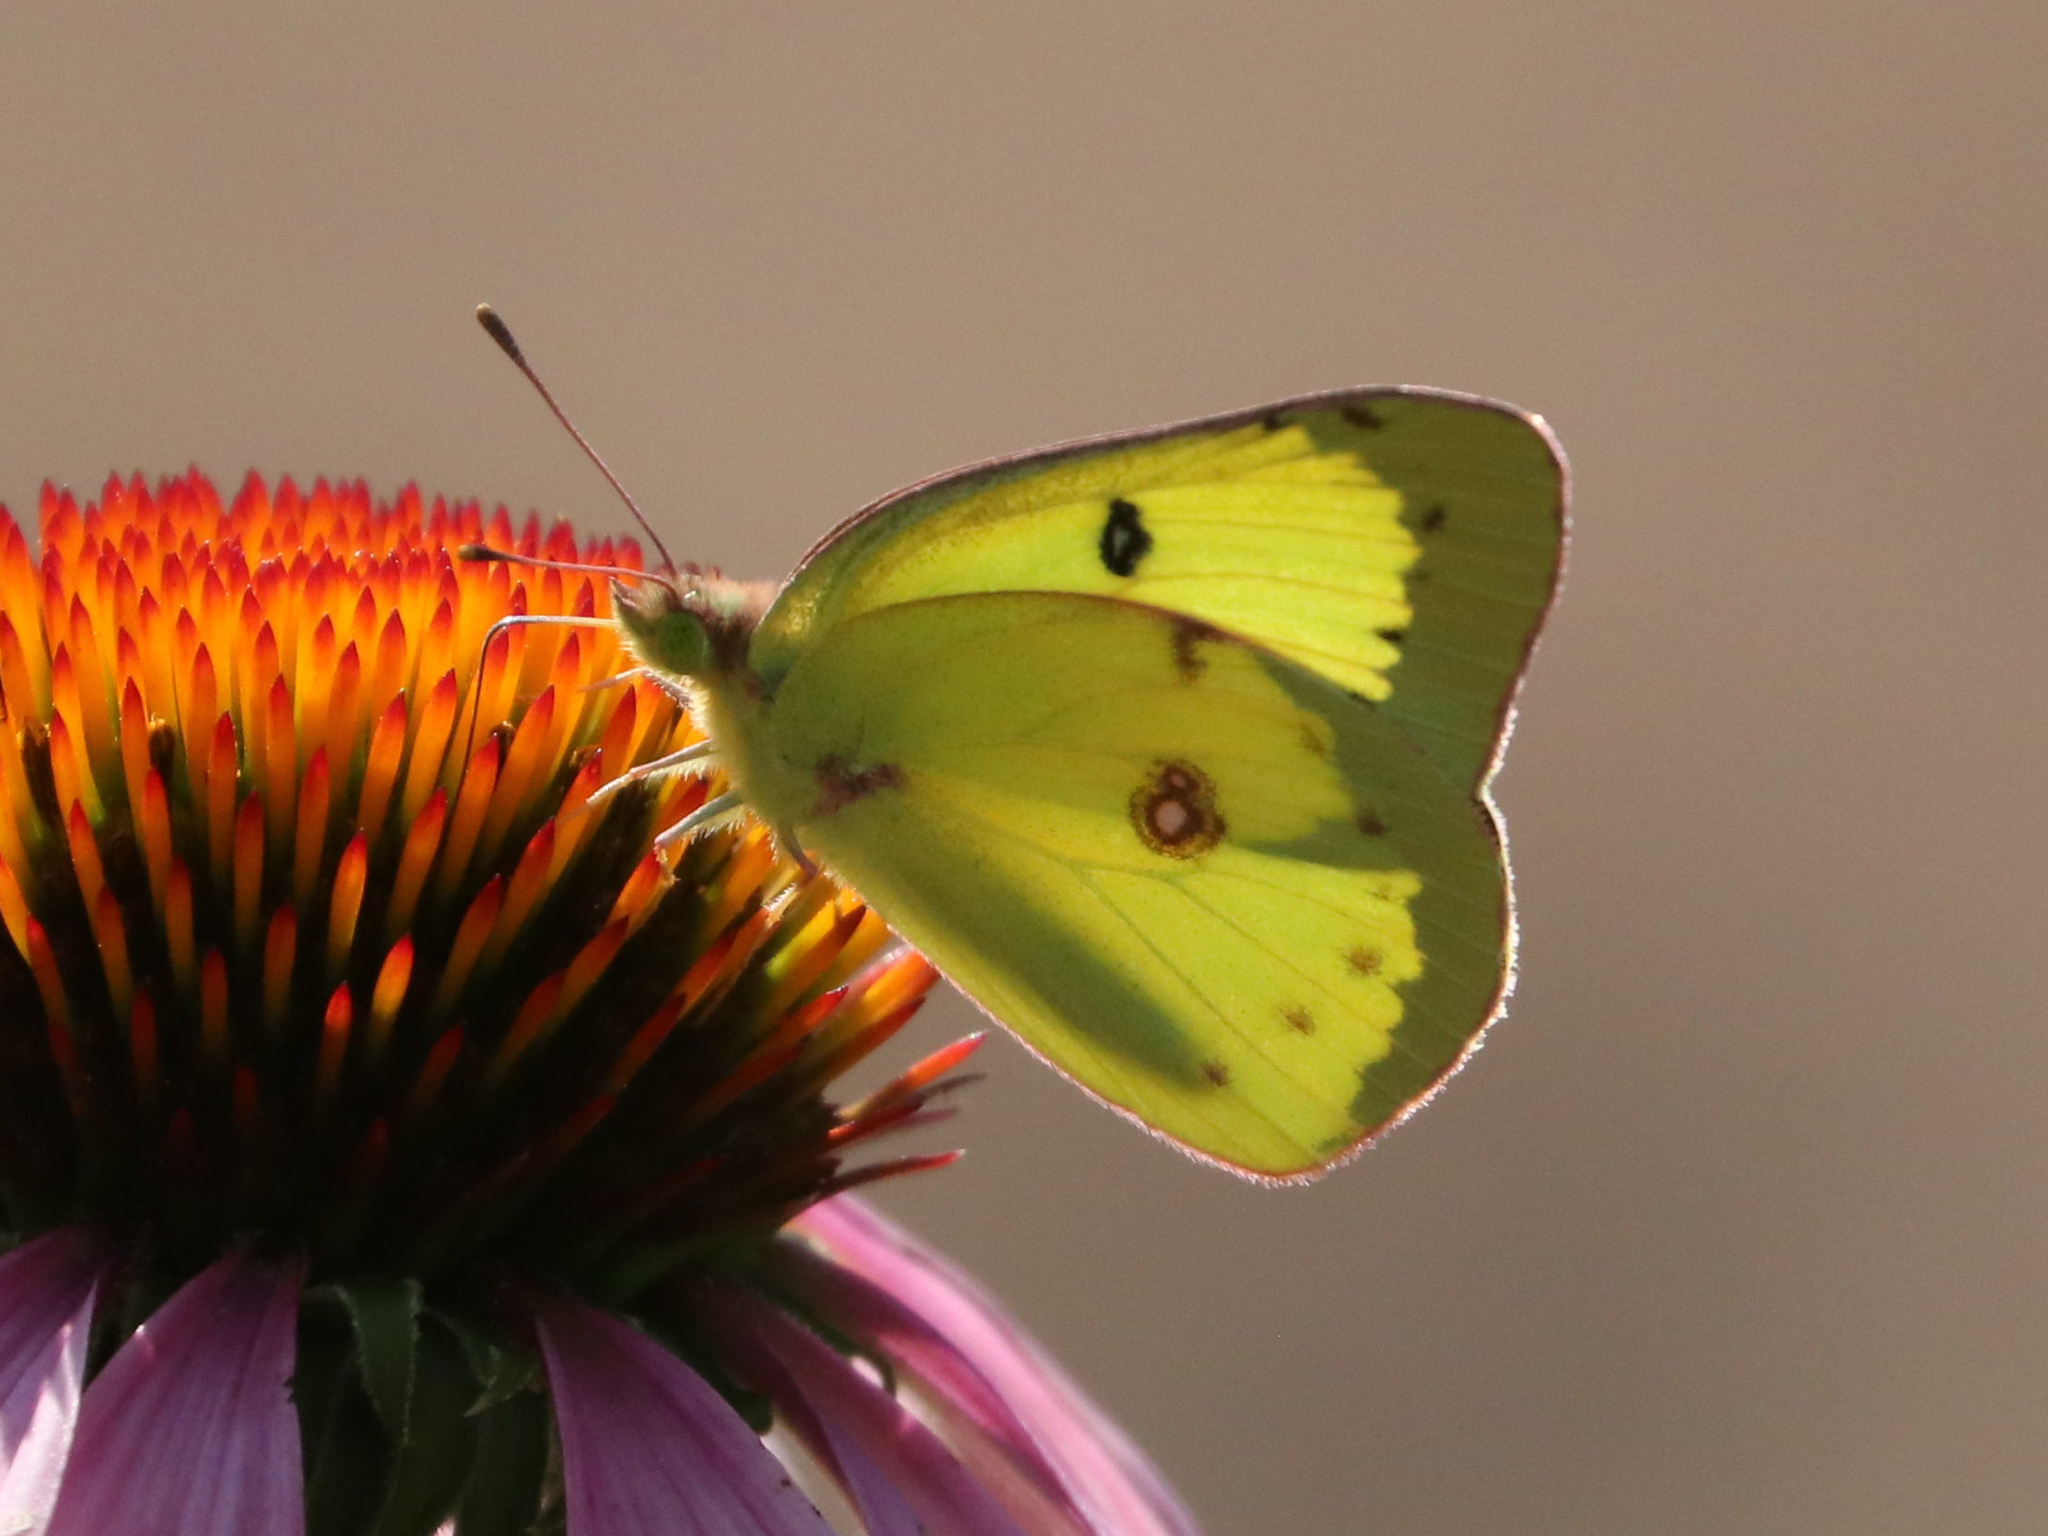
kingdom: Animalia
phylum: Arthropoda
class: Insecta
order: Lepidoptera
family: Pieridae
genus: Colias
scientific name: Colias philodice
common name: Clouded sulphur
